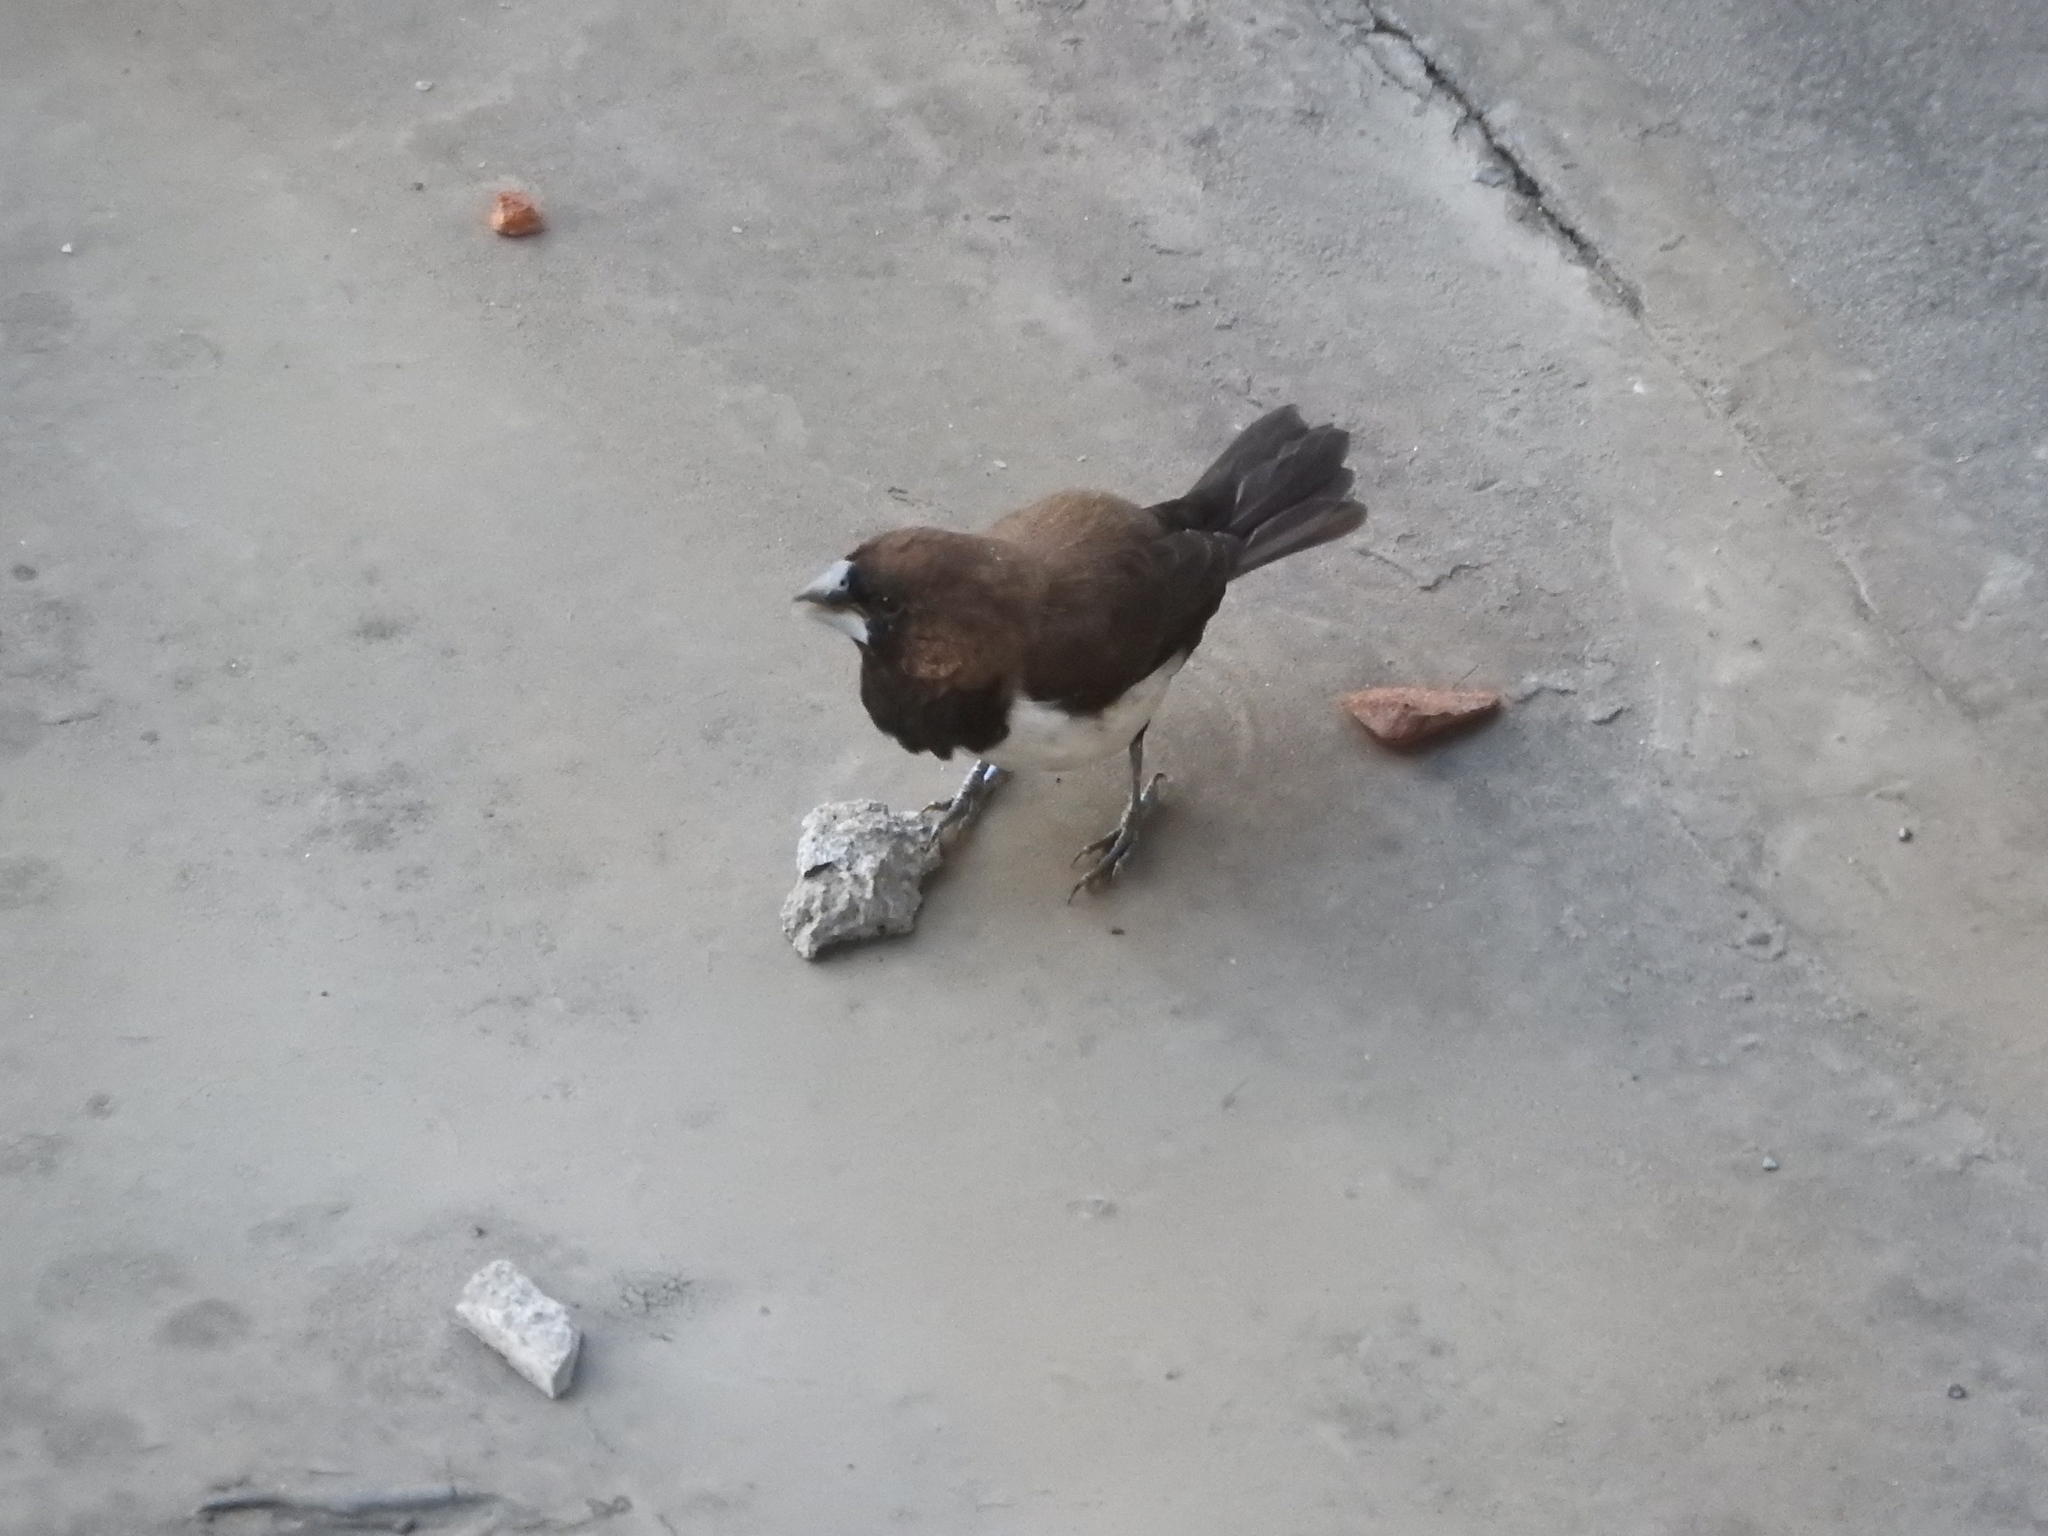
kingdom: Animalia
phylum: Chordata
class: Aves
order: Passeriformes
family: Estrildidae
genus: Lonchura
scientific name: Lonchura leucogastroides
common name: Javan munia
